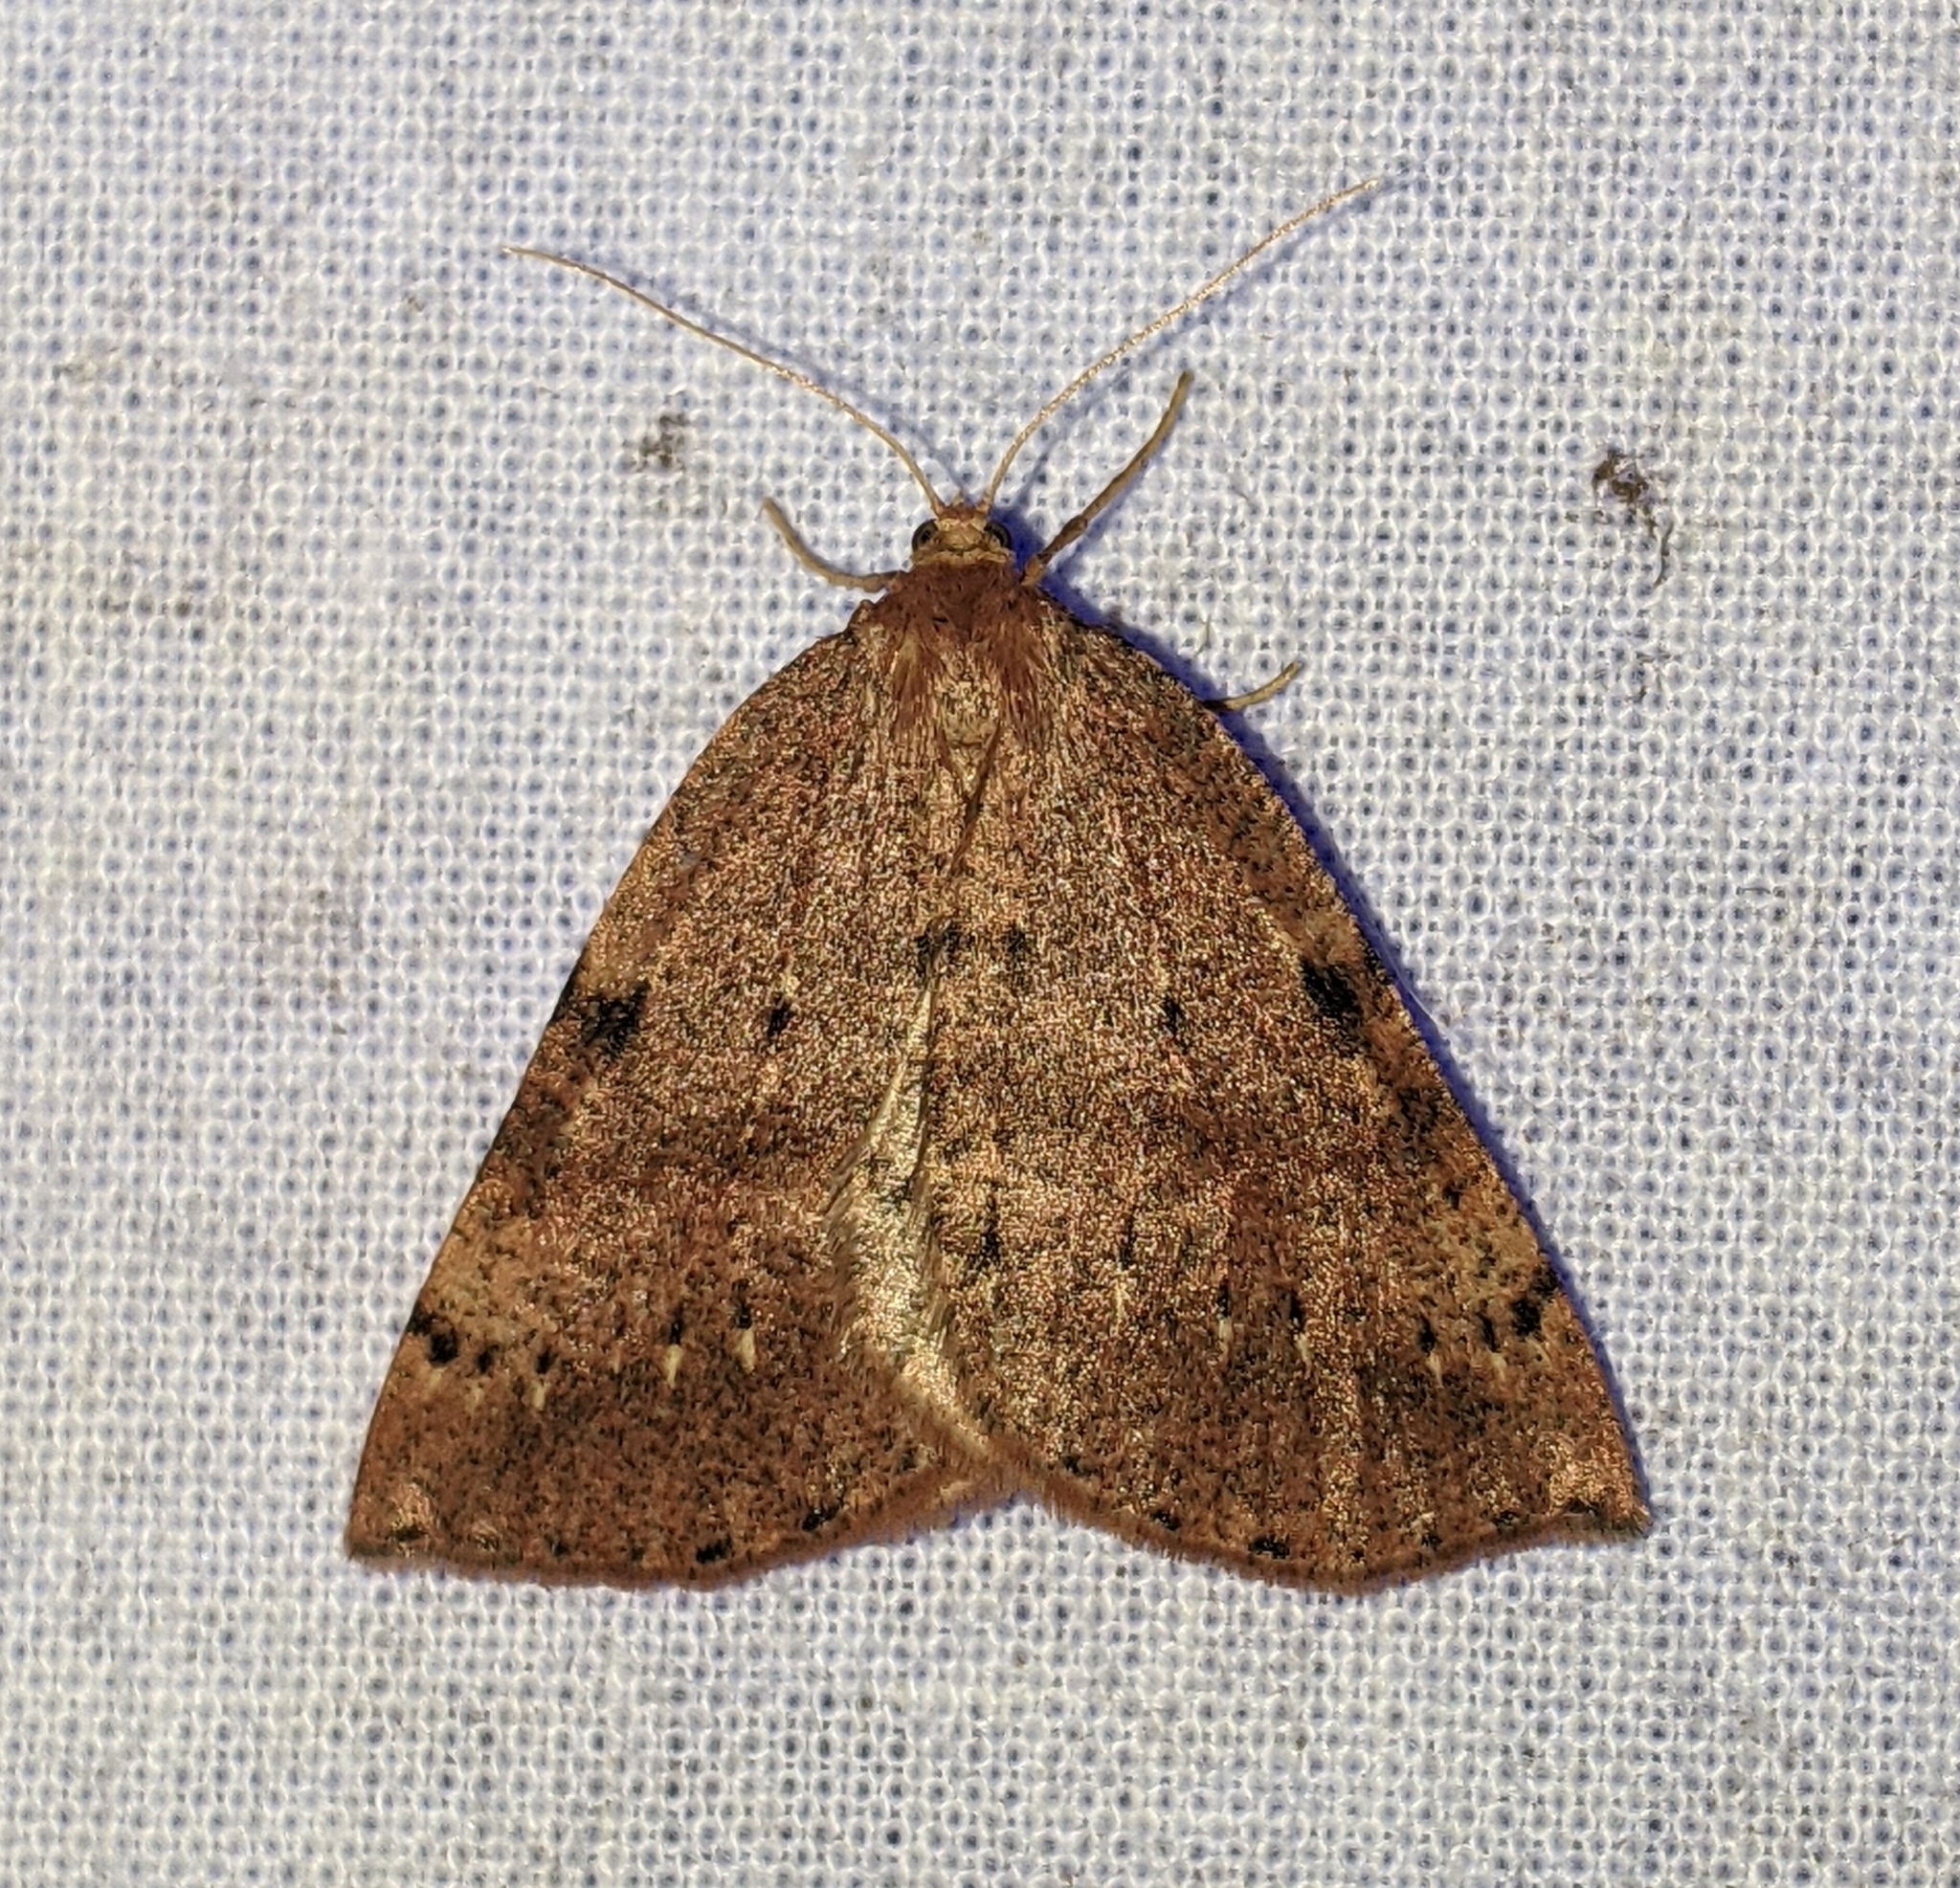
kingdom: Animalia
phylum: Arthropoda
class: Insecta
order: Lepidoptera
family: Geometridae
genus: Thallophaga
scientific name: Thallophaga hyperborea
